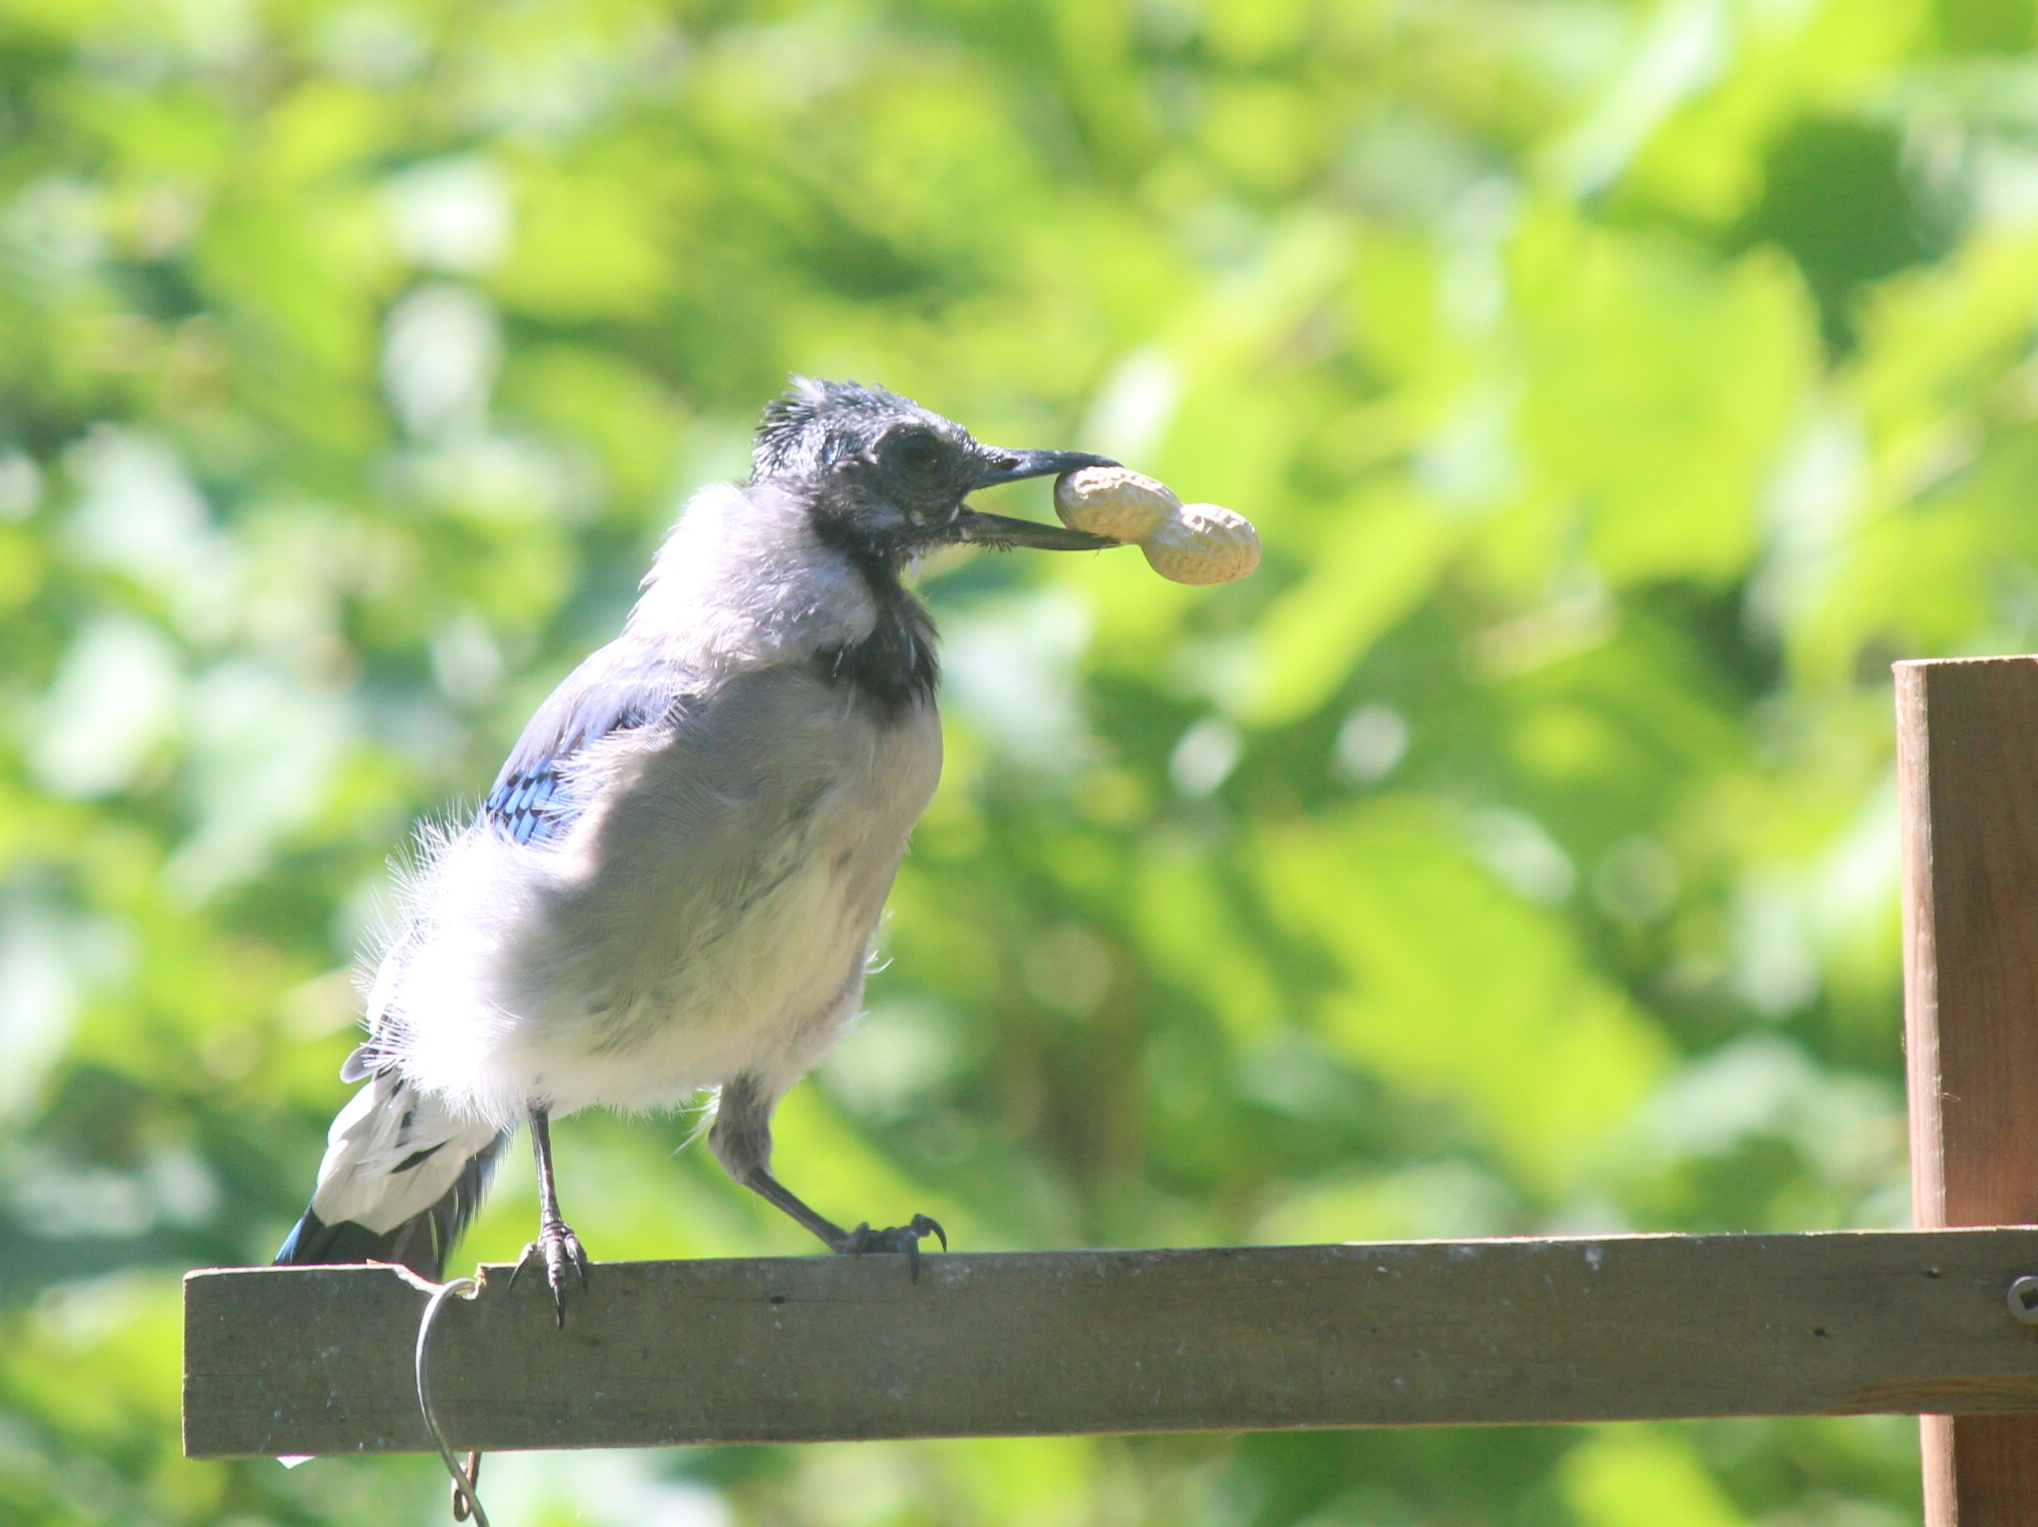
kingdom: Animalia
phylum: Chordata
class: Aves
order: Passeriformes
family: Corvidae
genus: Cyanocitta
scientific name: Cyanocitta cristata
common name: Blue jay
